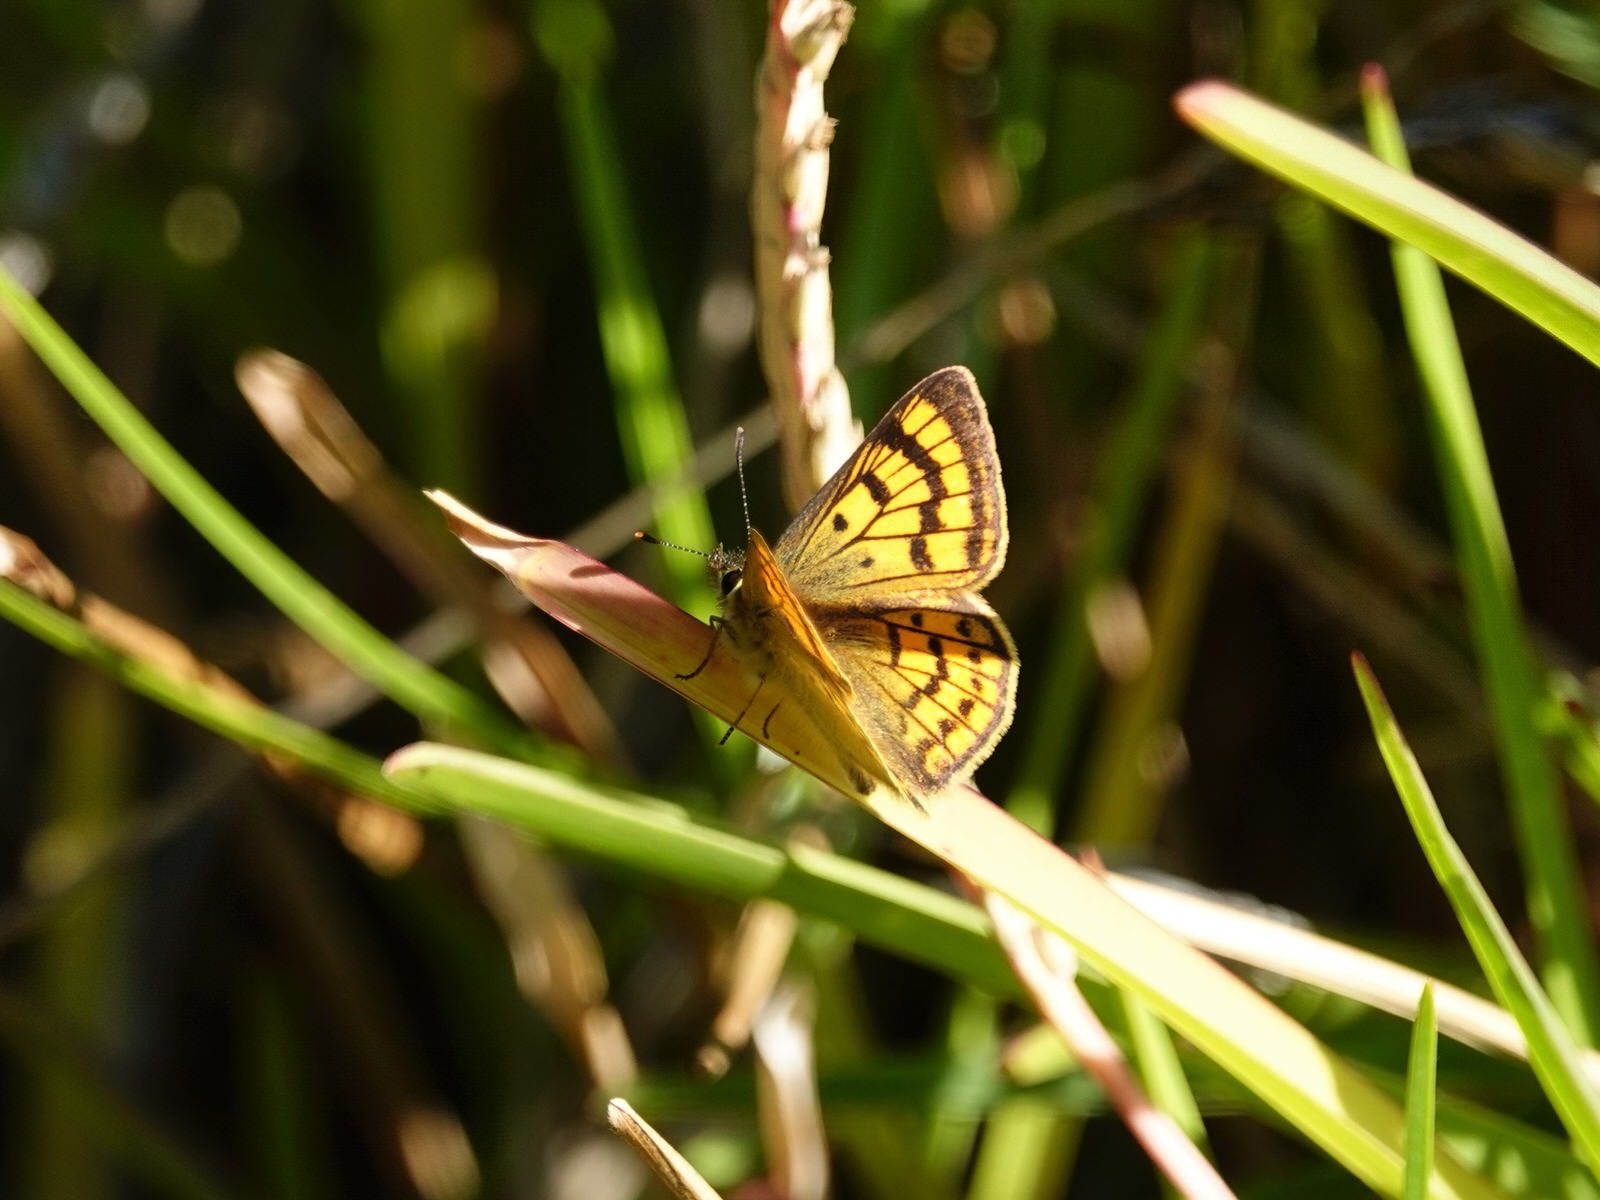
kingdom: Animalia
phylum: Arthropoda
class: Insecta
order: Lepidoptera
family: Lycaenidae
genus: Lycaena
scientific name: Lycaena salustius
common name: North island coastal copper
